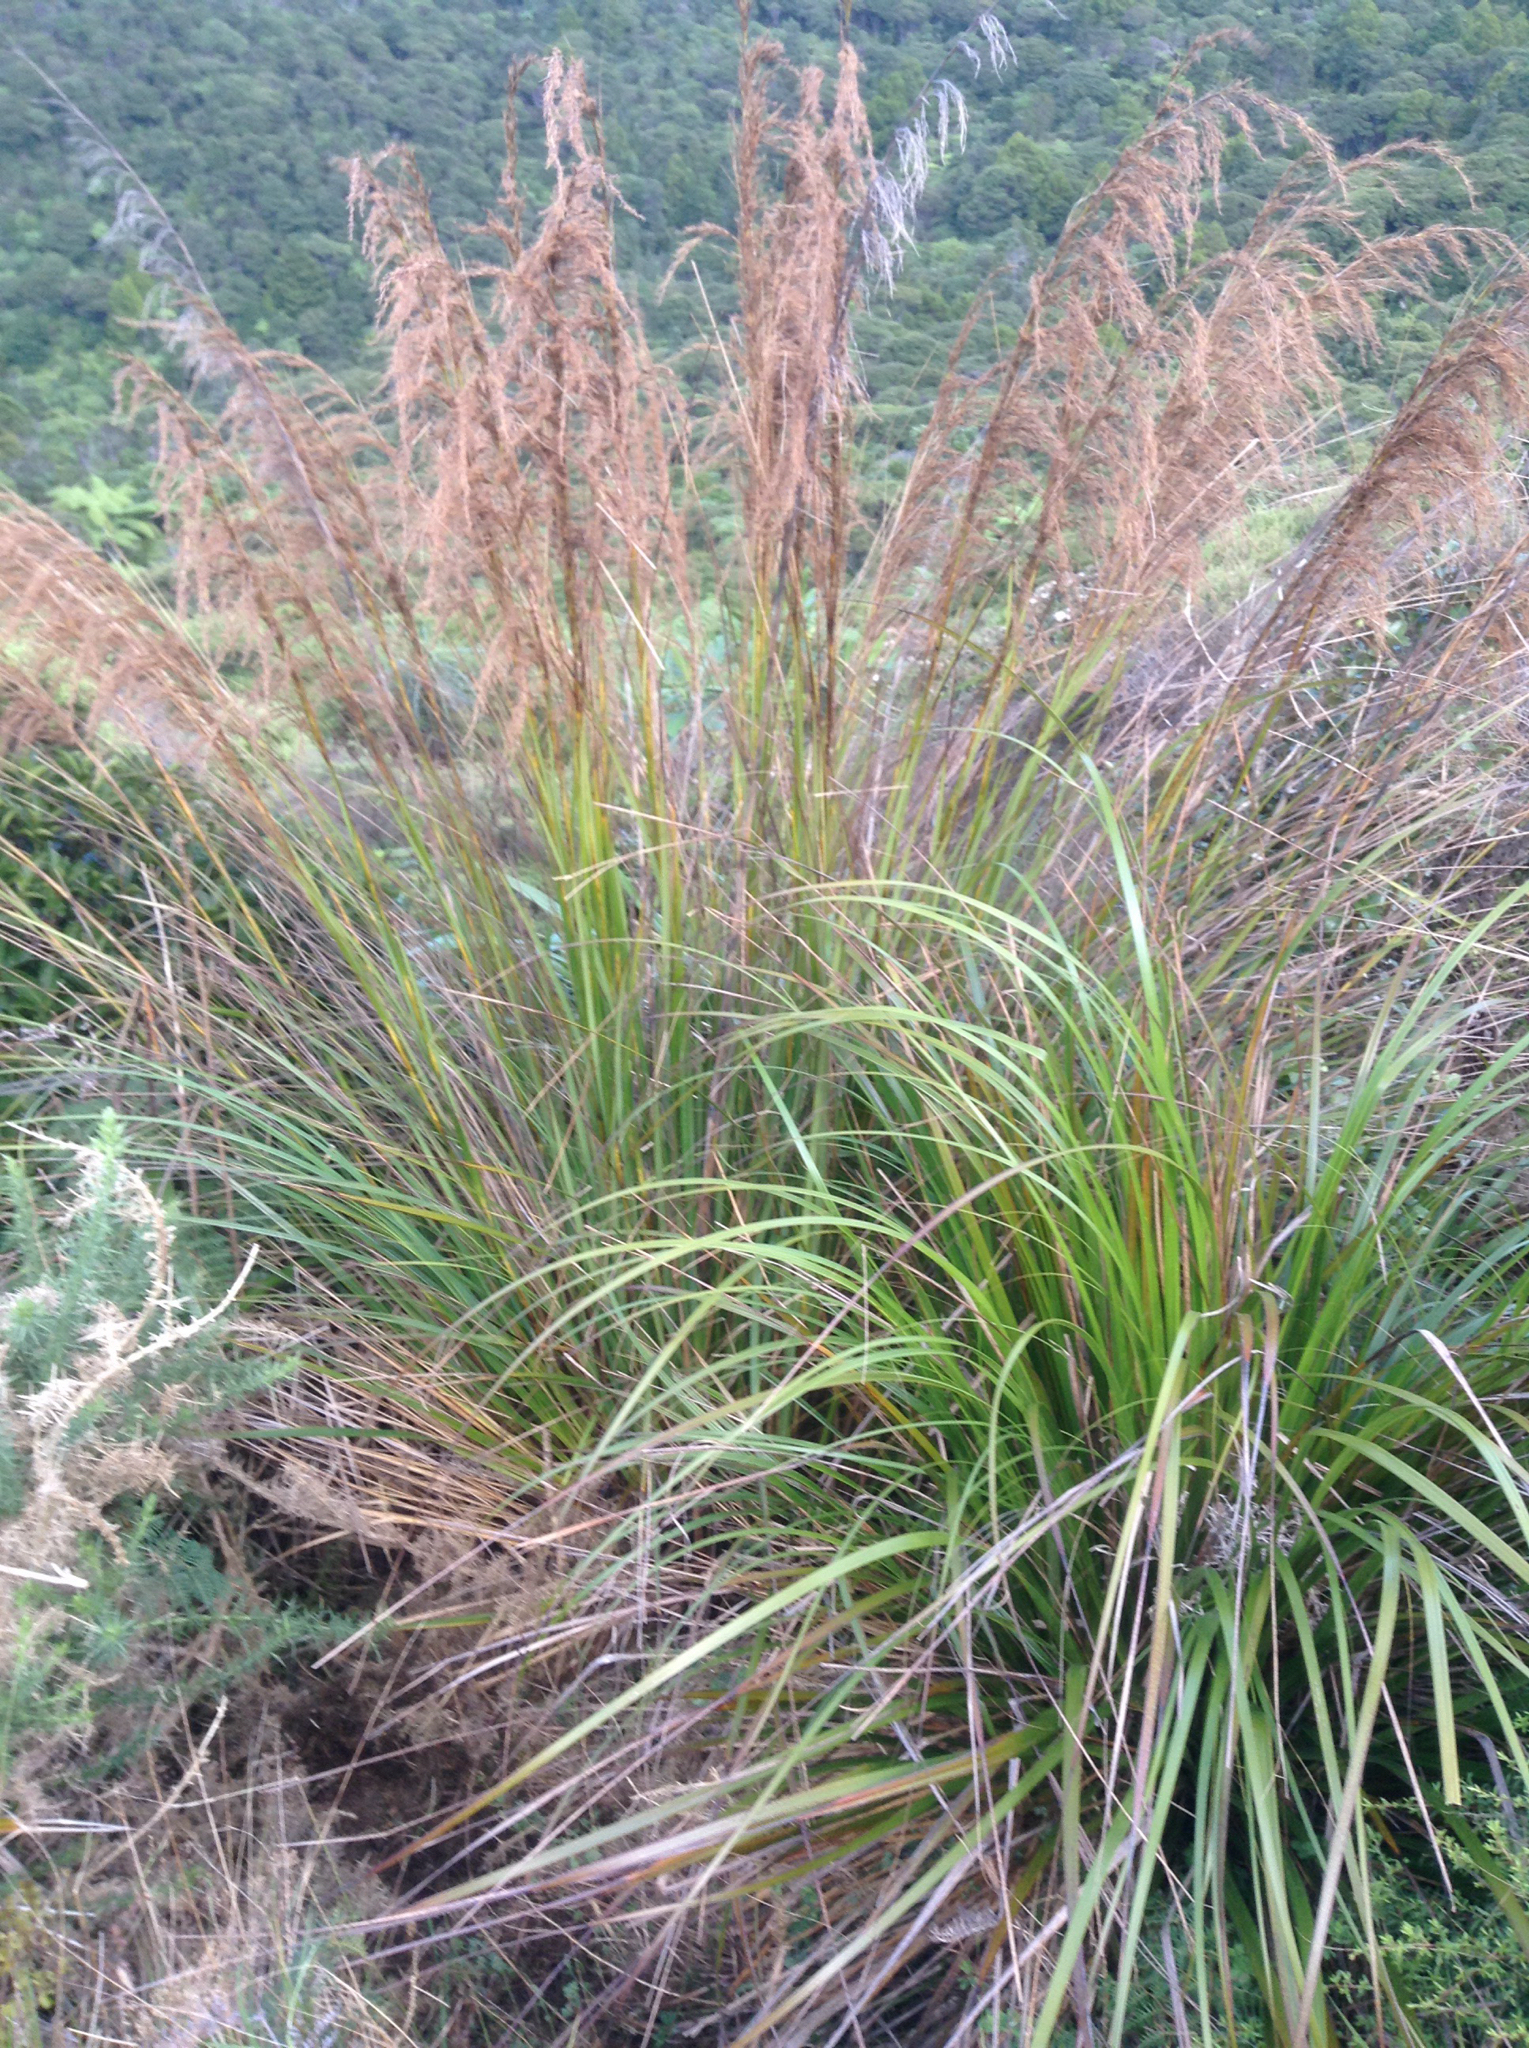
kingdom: Plantae
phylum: Tracheophyta
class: Liliopsida
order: Poales
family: Cyperaceae
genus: Gahnia
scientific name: Gahnia setifolia
